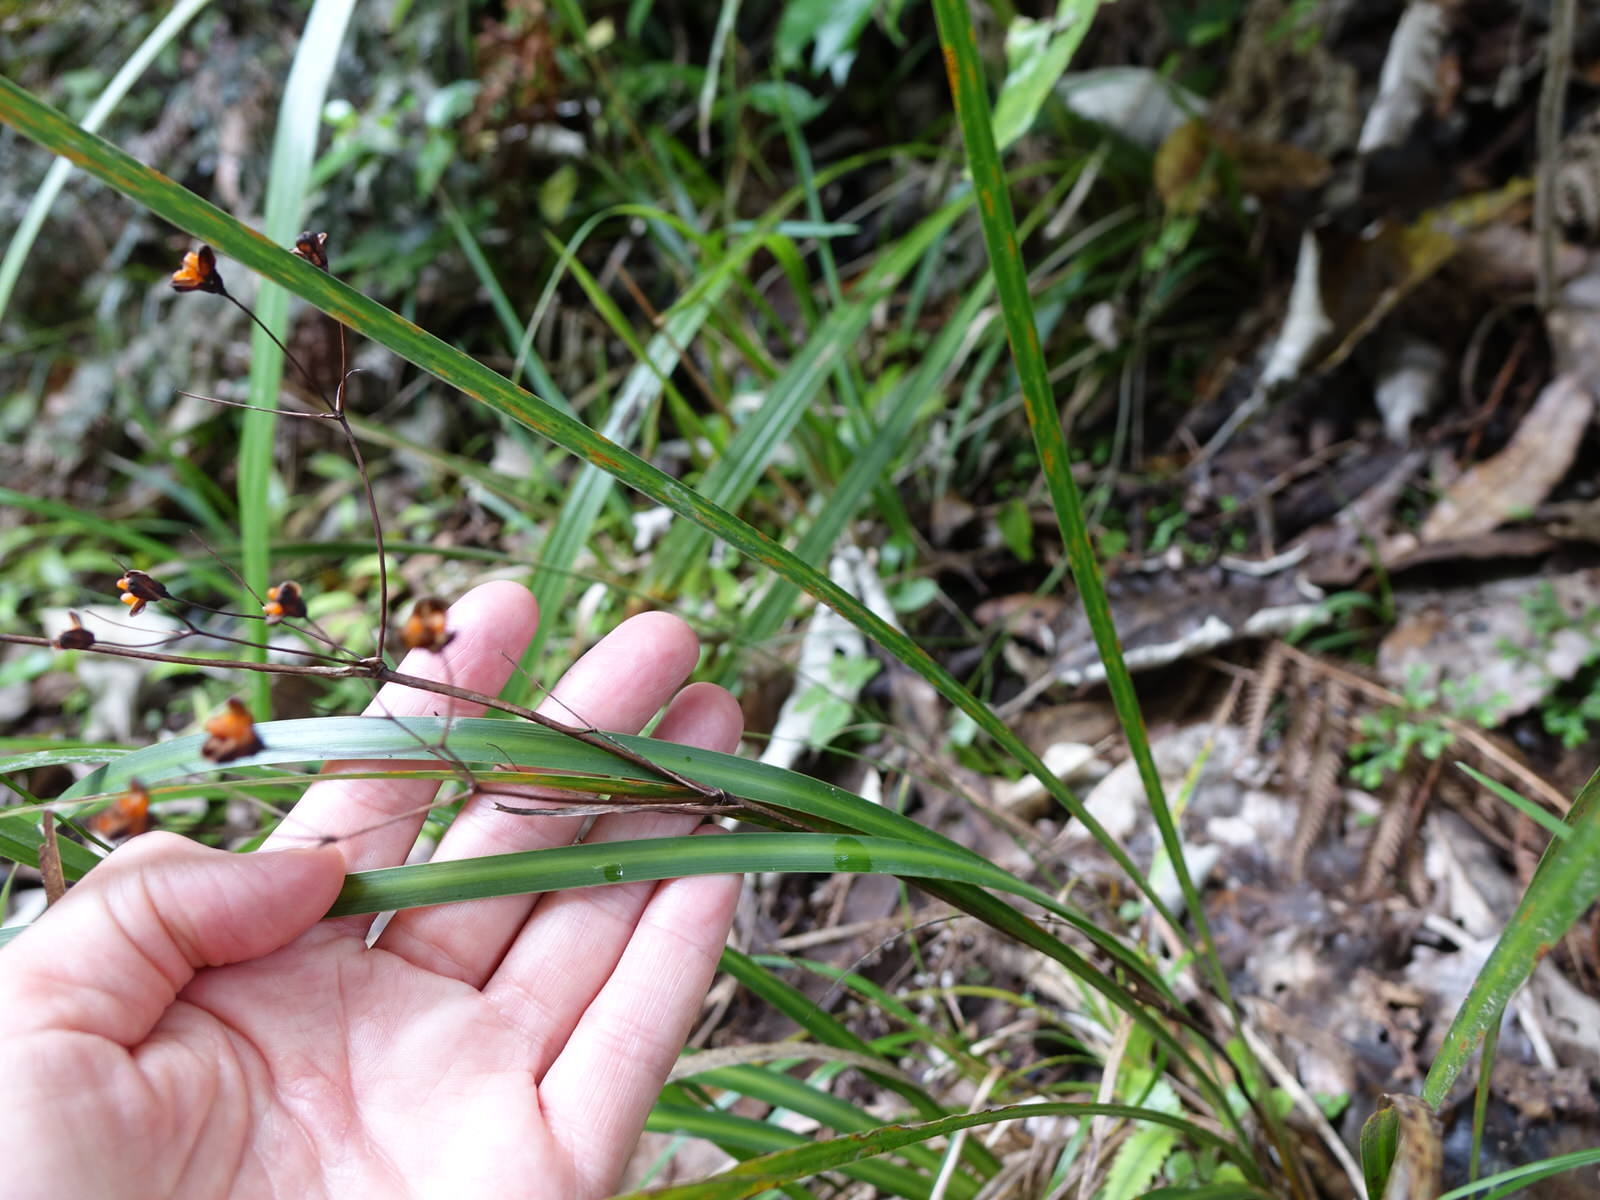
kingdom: Plantae
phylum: Tracheophyta
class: Liliopsida
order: Asparagales
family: Iridaceae
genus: Libertia
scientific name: Libertia grandiflora
